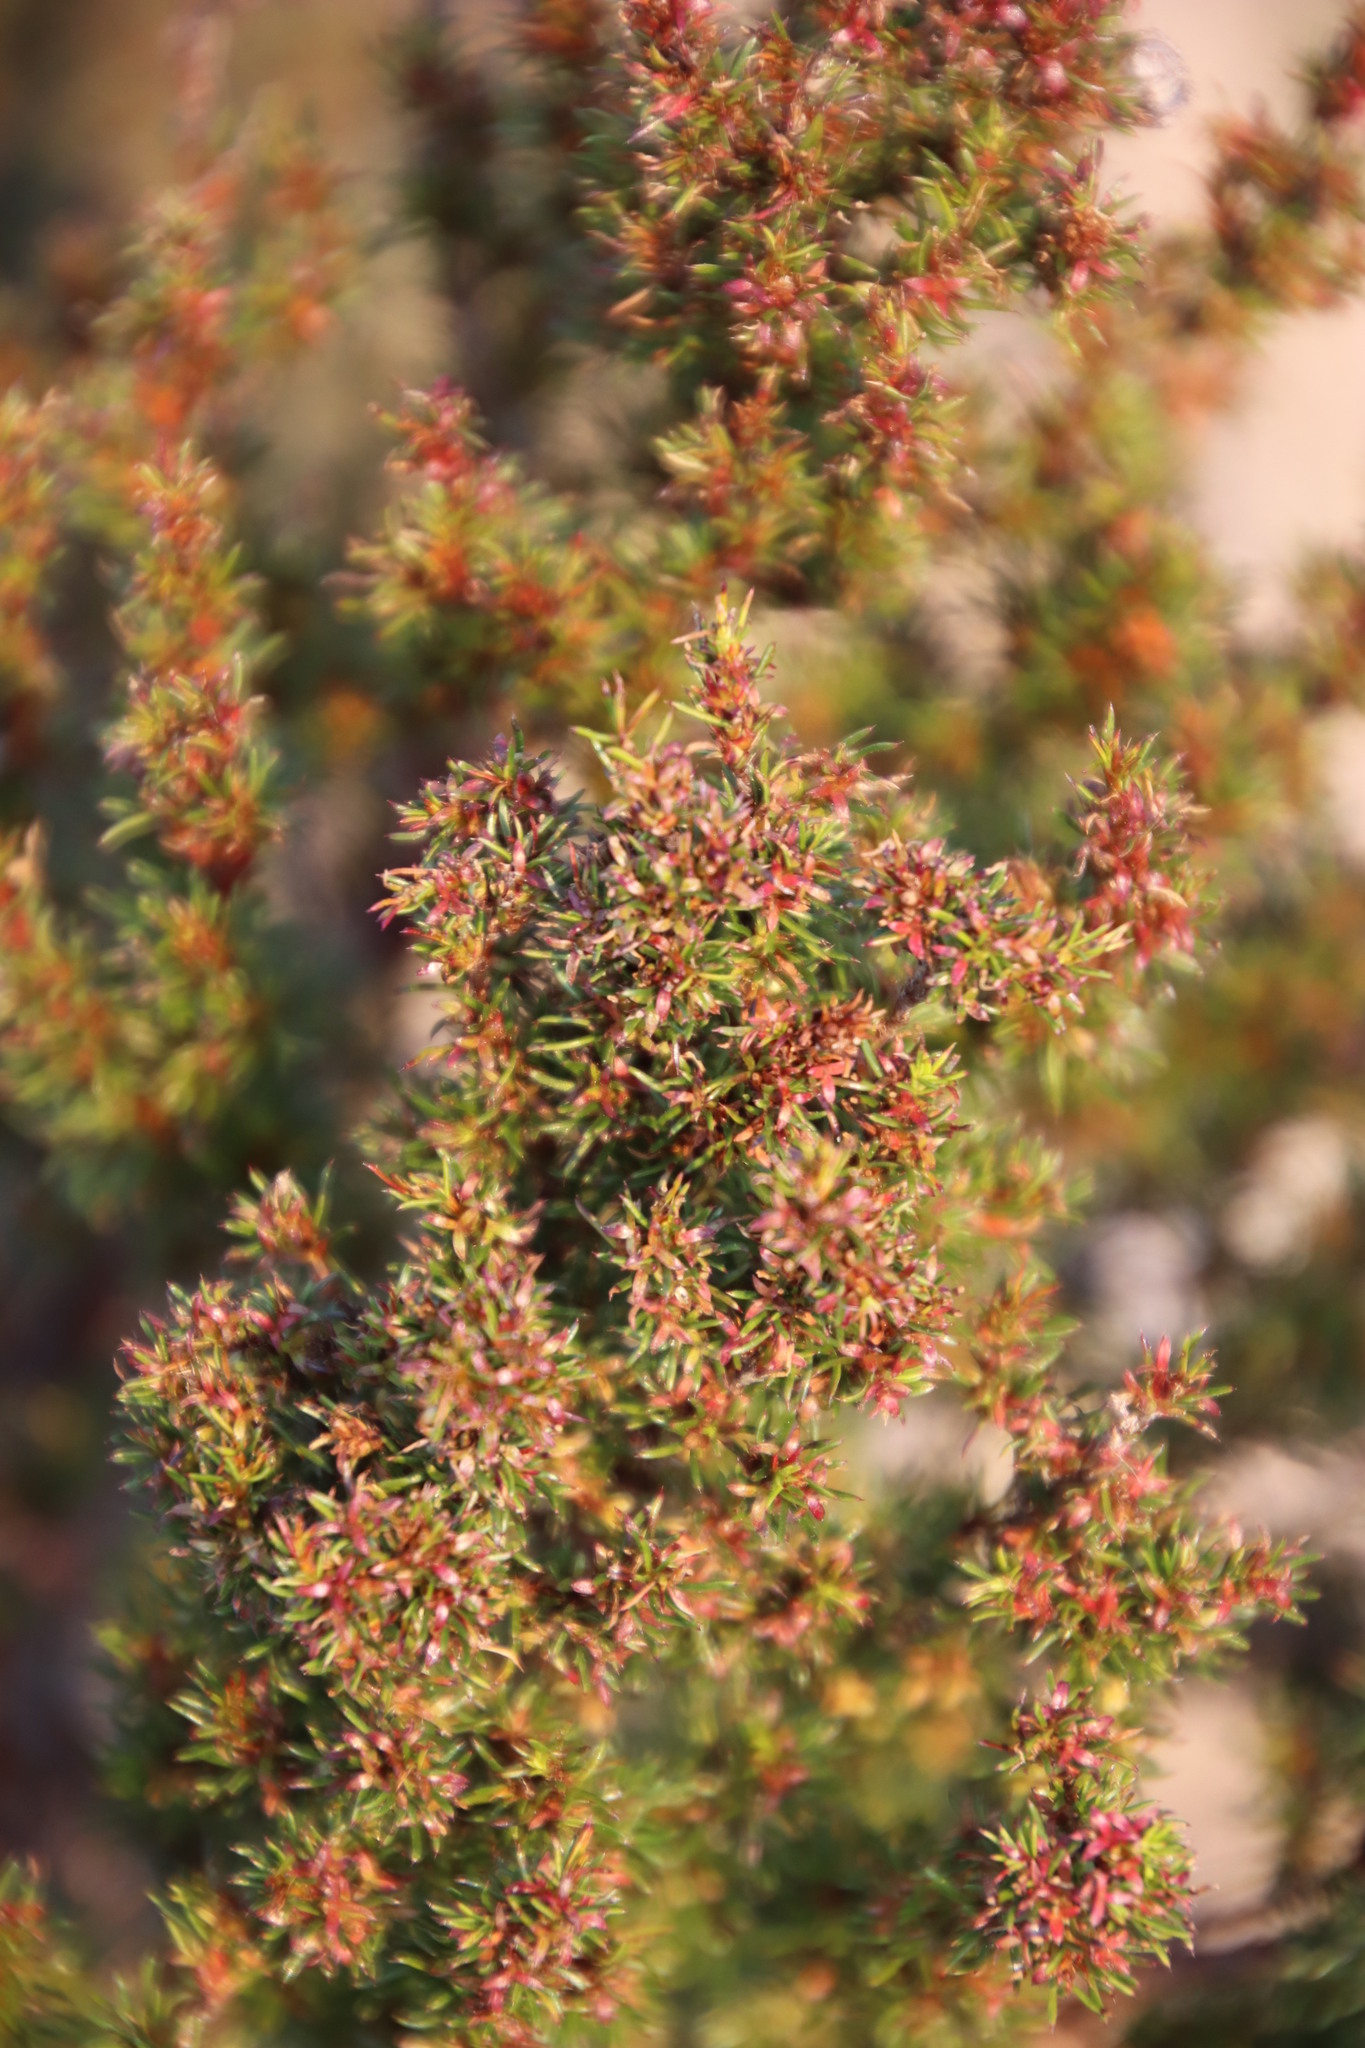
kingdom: Plantae
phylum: Tracheophyta
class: Magnoliopsida
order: Rosales
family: Rosaceae
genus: Cliffortia
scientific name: Cliffortia filifolia
